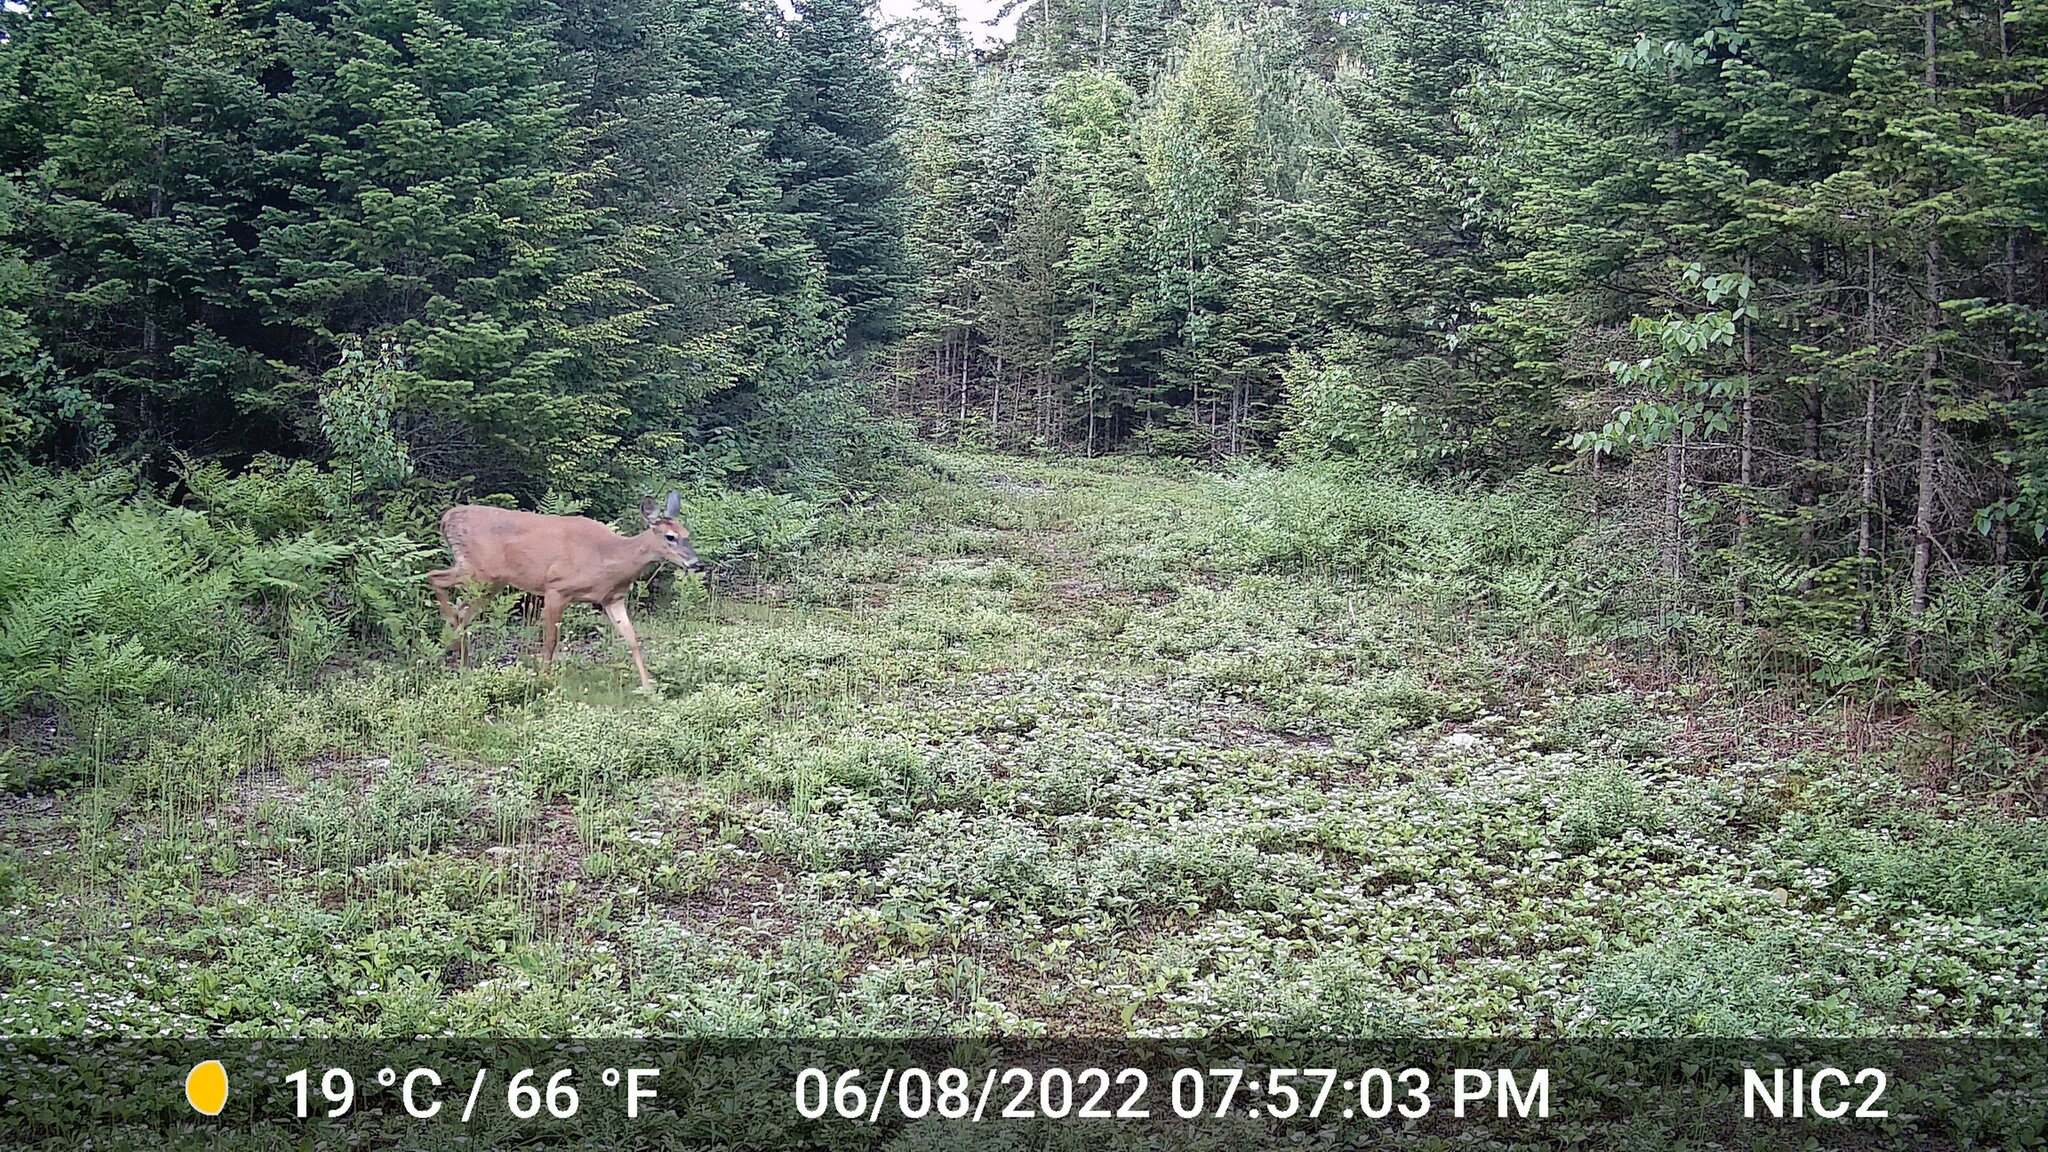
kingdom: Animalia
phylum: Chordata
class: Mammalia
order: Artiodactyla
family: Cervidae
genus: Odocoileus
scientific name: Odocoileus virginianus
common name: White-tailed deer
